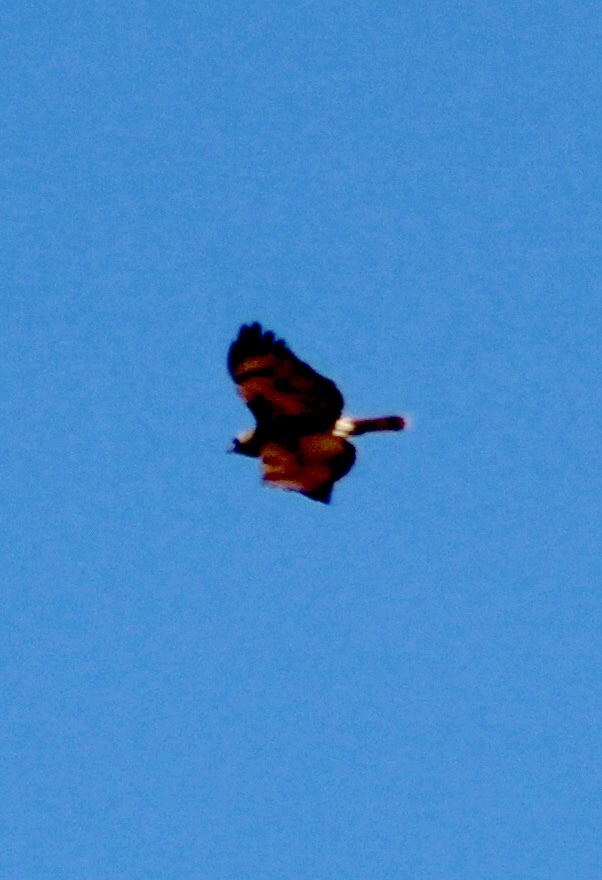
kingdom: Animalia
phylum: Chordata
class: Aves
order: Accipitriformes
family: Accipitridae
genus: Buteo
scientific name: Buteo jamaicensis
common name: Red-tailed hawk
